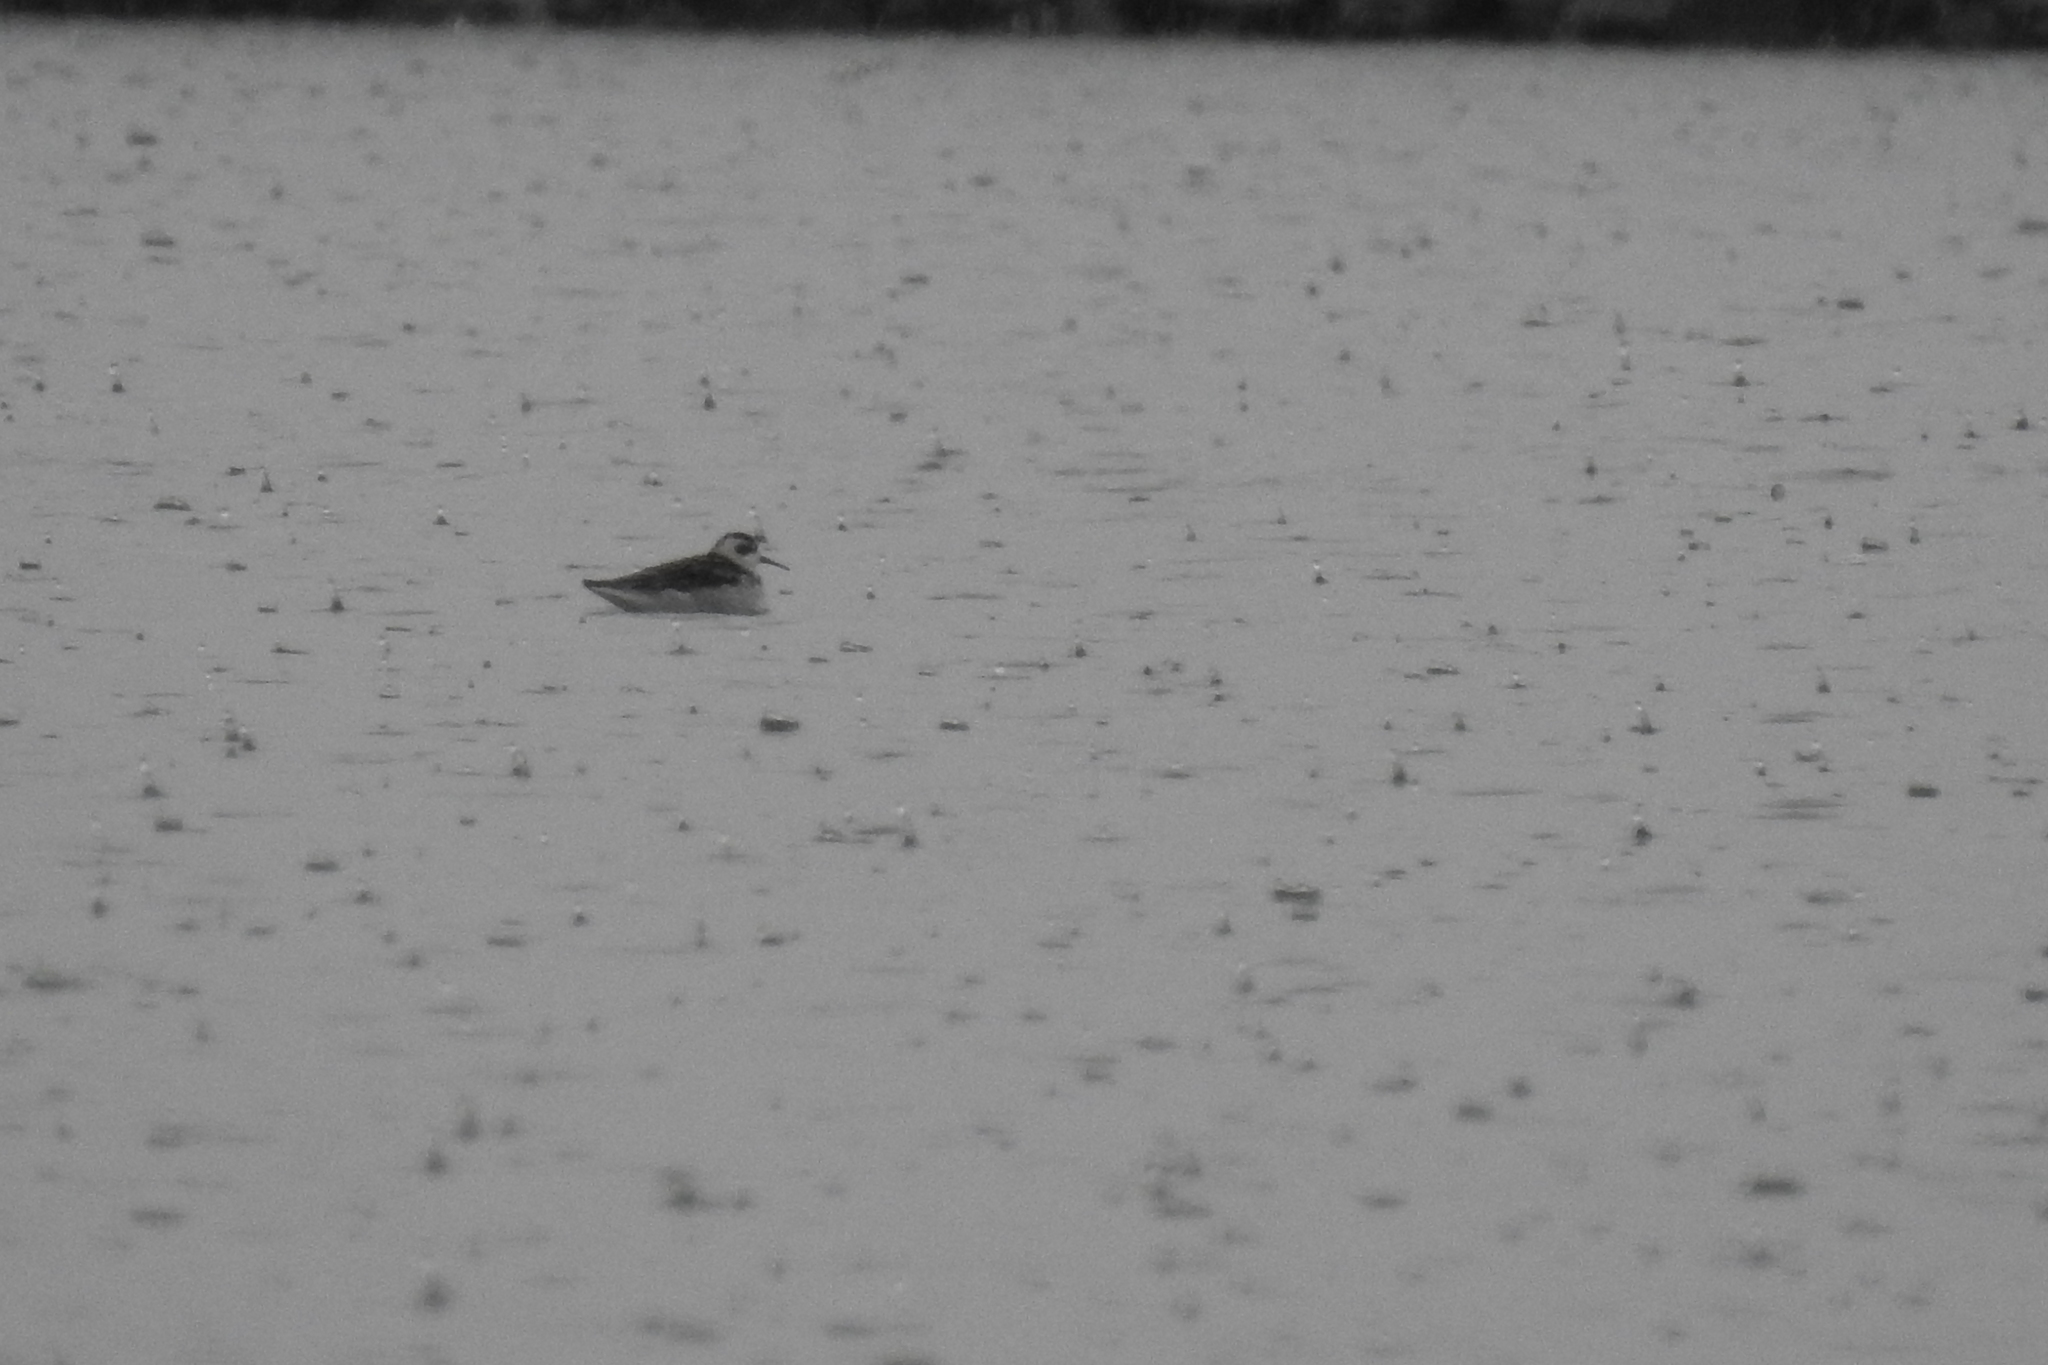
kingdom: Animalia
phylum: Chordata
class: Aves
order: Charadriiformes
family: Scolopacidae
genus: Phalaropus
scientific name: Phalaropus lobatus
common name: Red-necked phalarope
